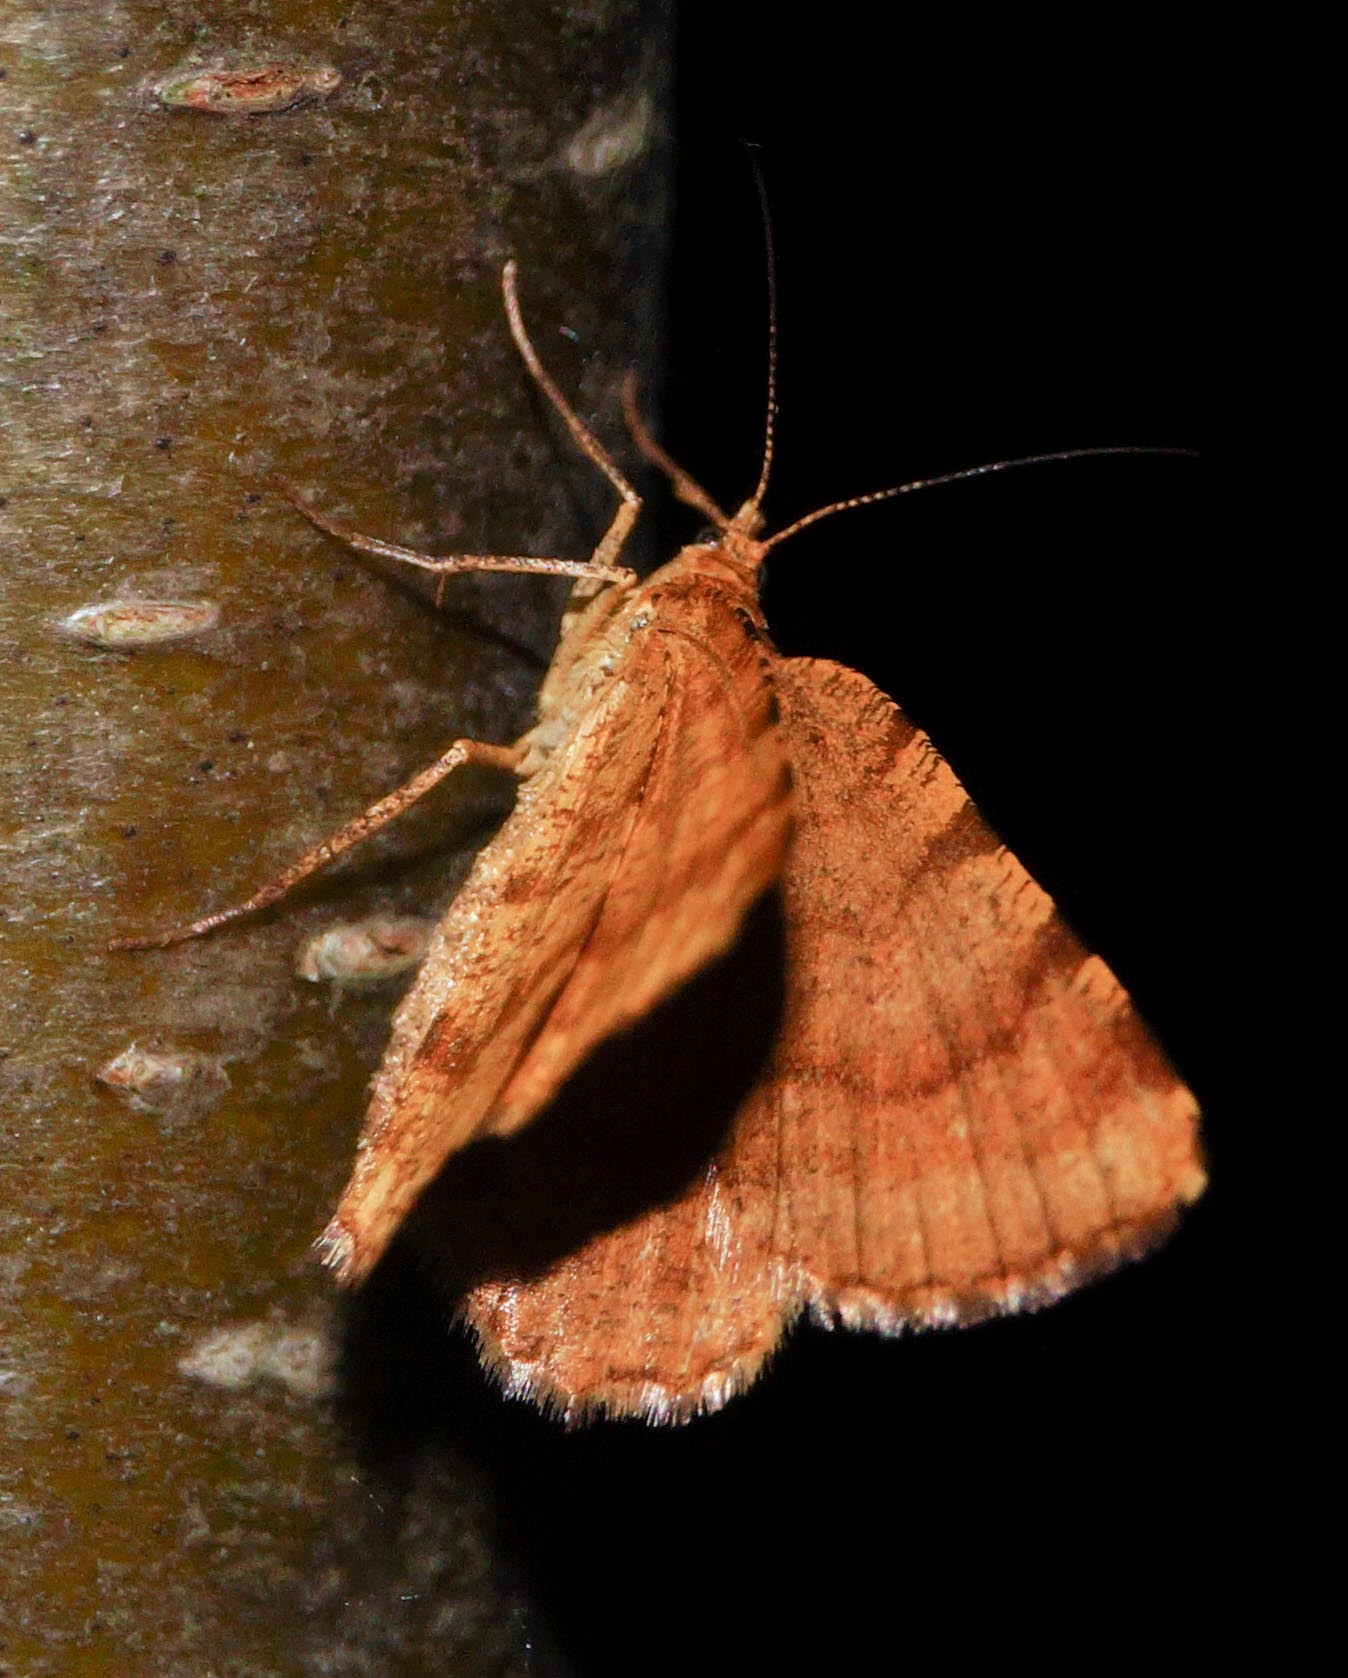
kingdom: Animalia
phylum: Arthropoda
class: Insecta
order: Lepidoptera
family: Geometridae
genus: Macaria
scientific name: Macaria brunneata
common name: Rannoch looper
